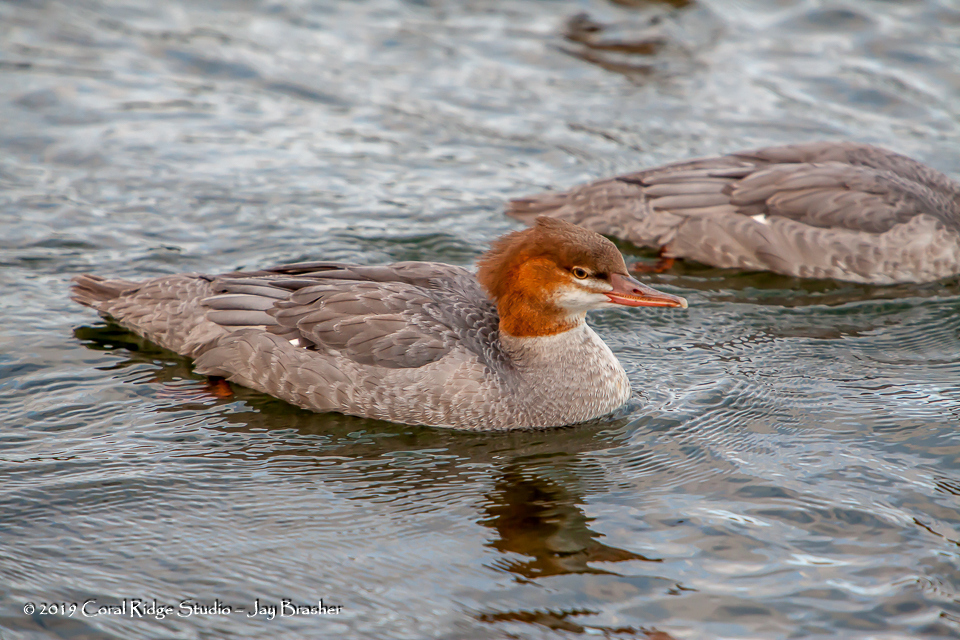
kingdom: Animalia
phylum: Chordata
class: Aves
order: Anseriformes
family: Anatidae
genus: Mergus
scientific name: Mergus merganser
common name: Common merganser
